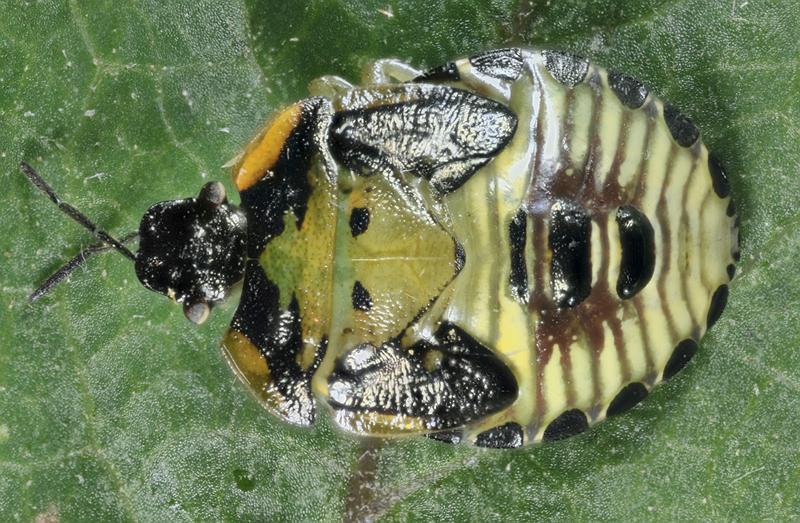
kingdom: Animalia
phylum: Arthropoda
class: Insecta
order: Hemiptera
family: Pentatomidae
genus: Chinavia
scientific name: Chinavia hilaris
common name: Green stink bug
